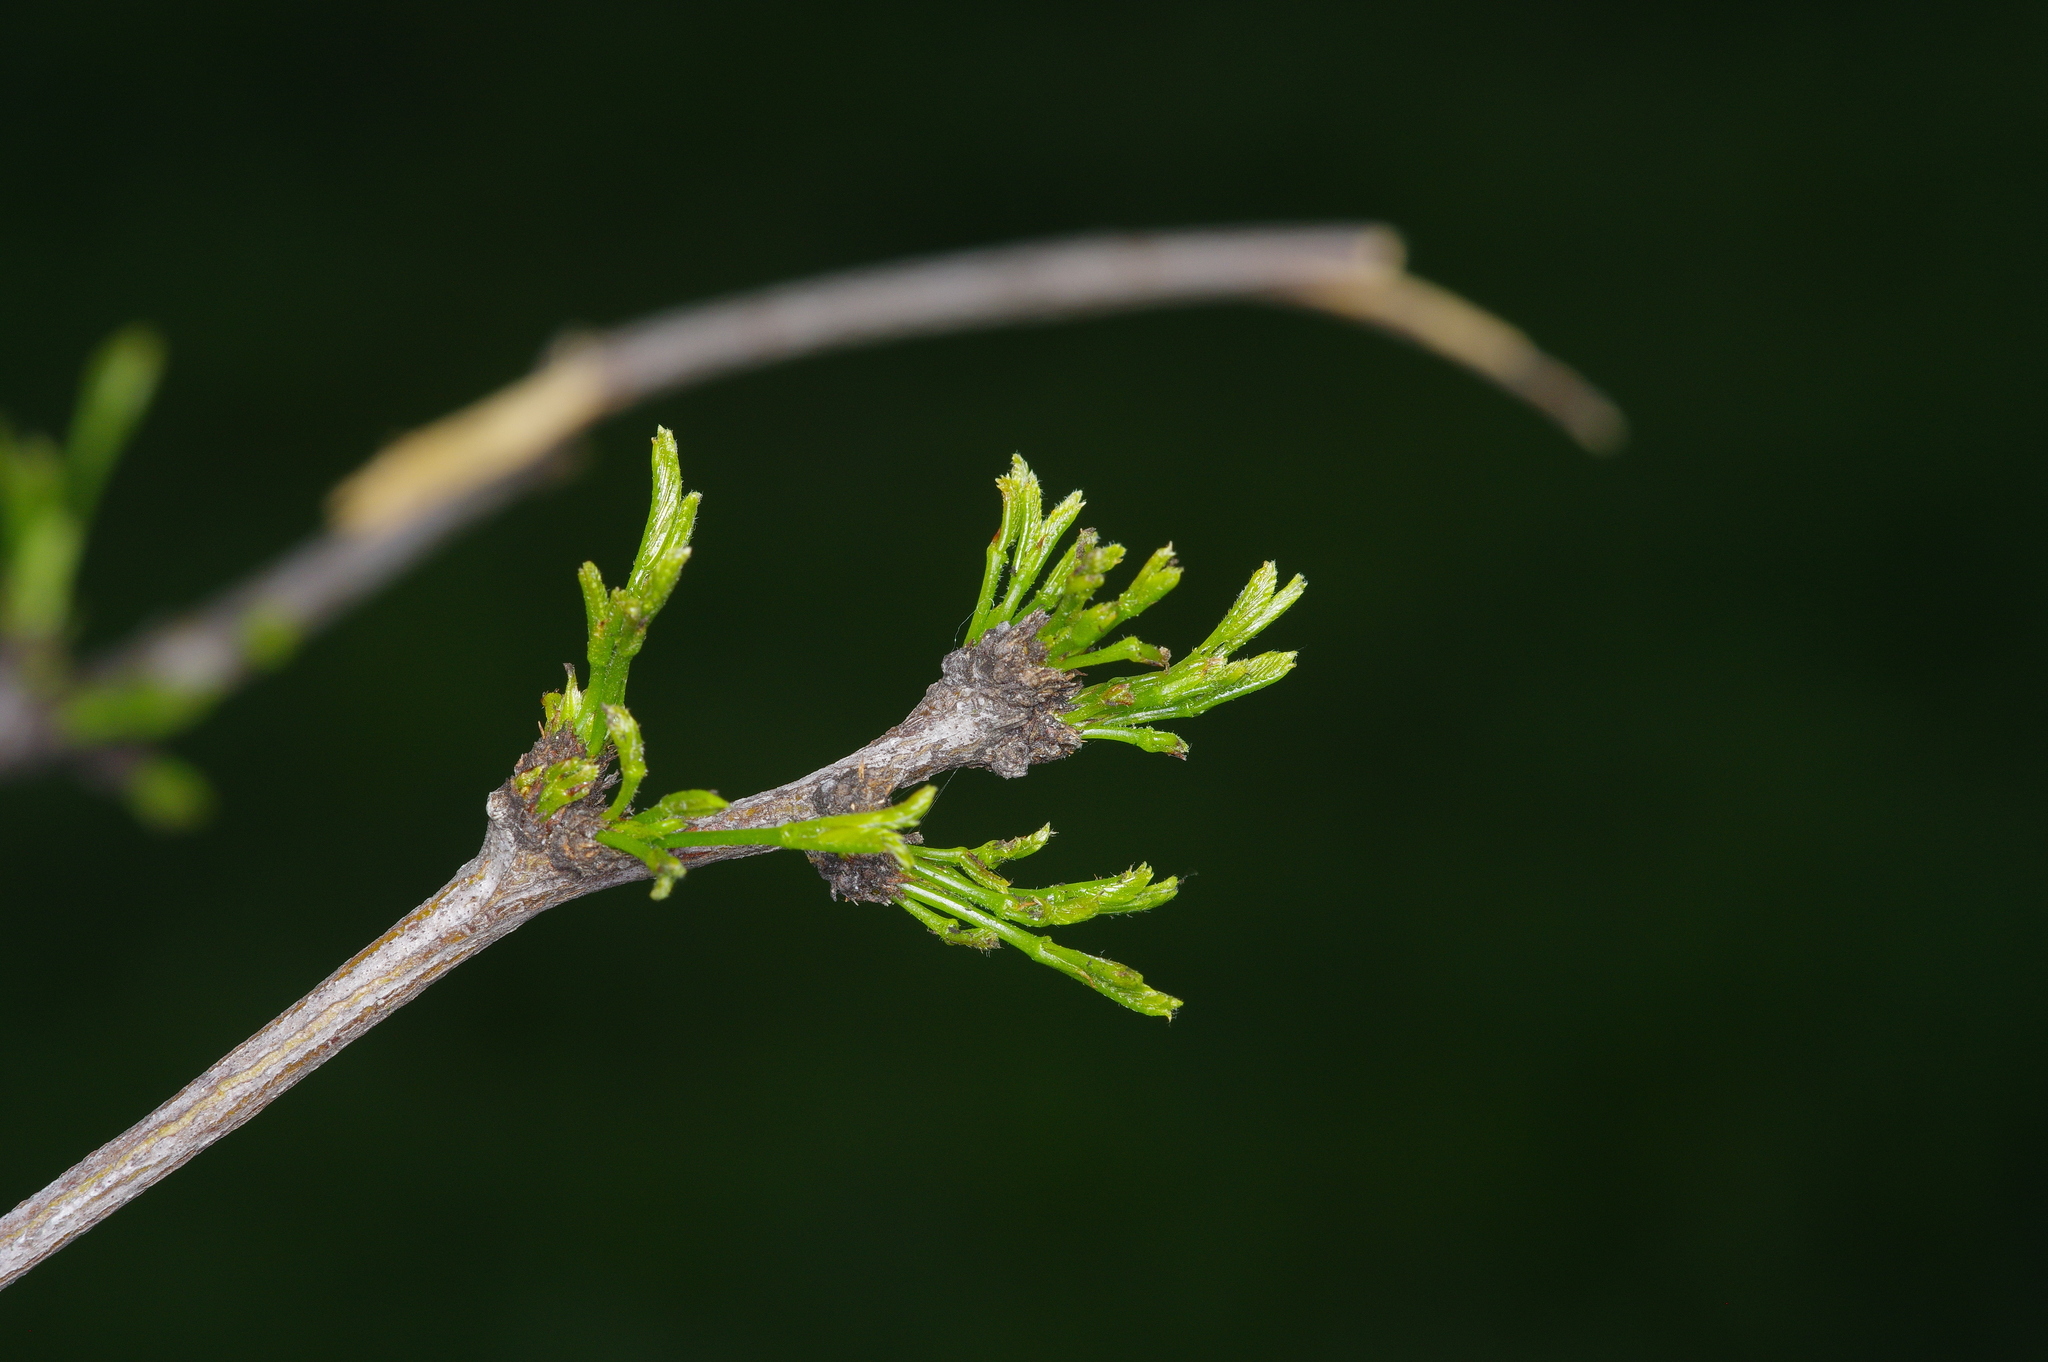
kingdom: Plantae
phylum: Tracheophyta
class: Magnoliopsida
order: Fabales
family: Fabaceae
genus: Prosopis
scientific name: Prosopis glandulosa
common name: Honey mesquite
